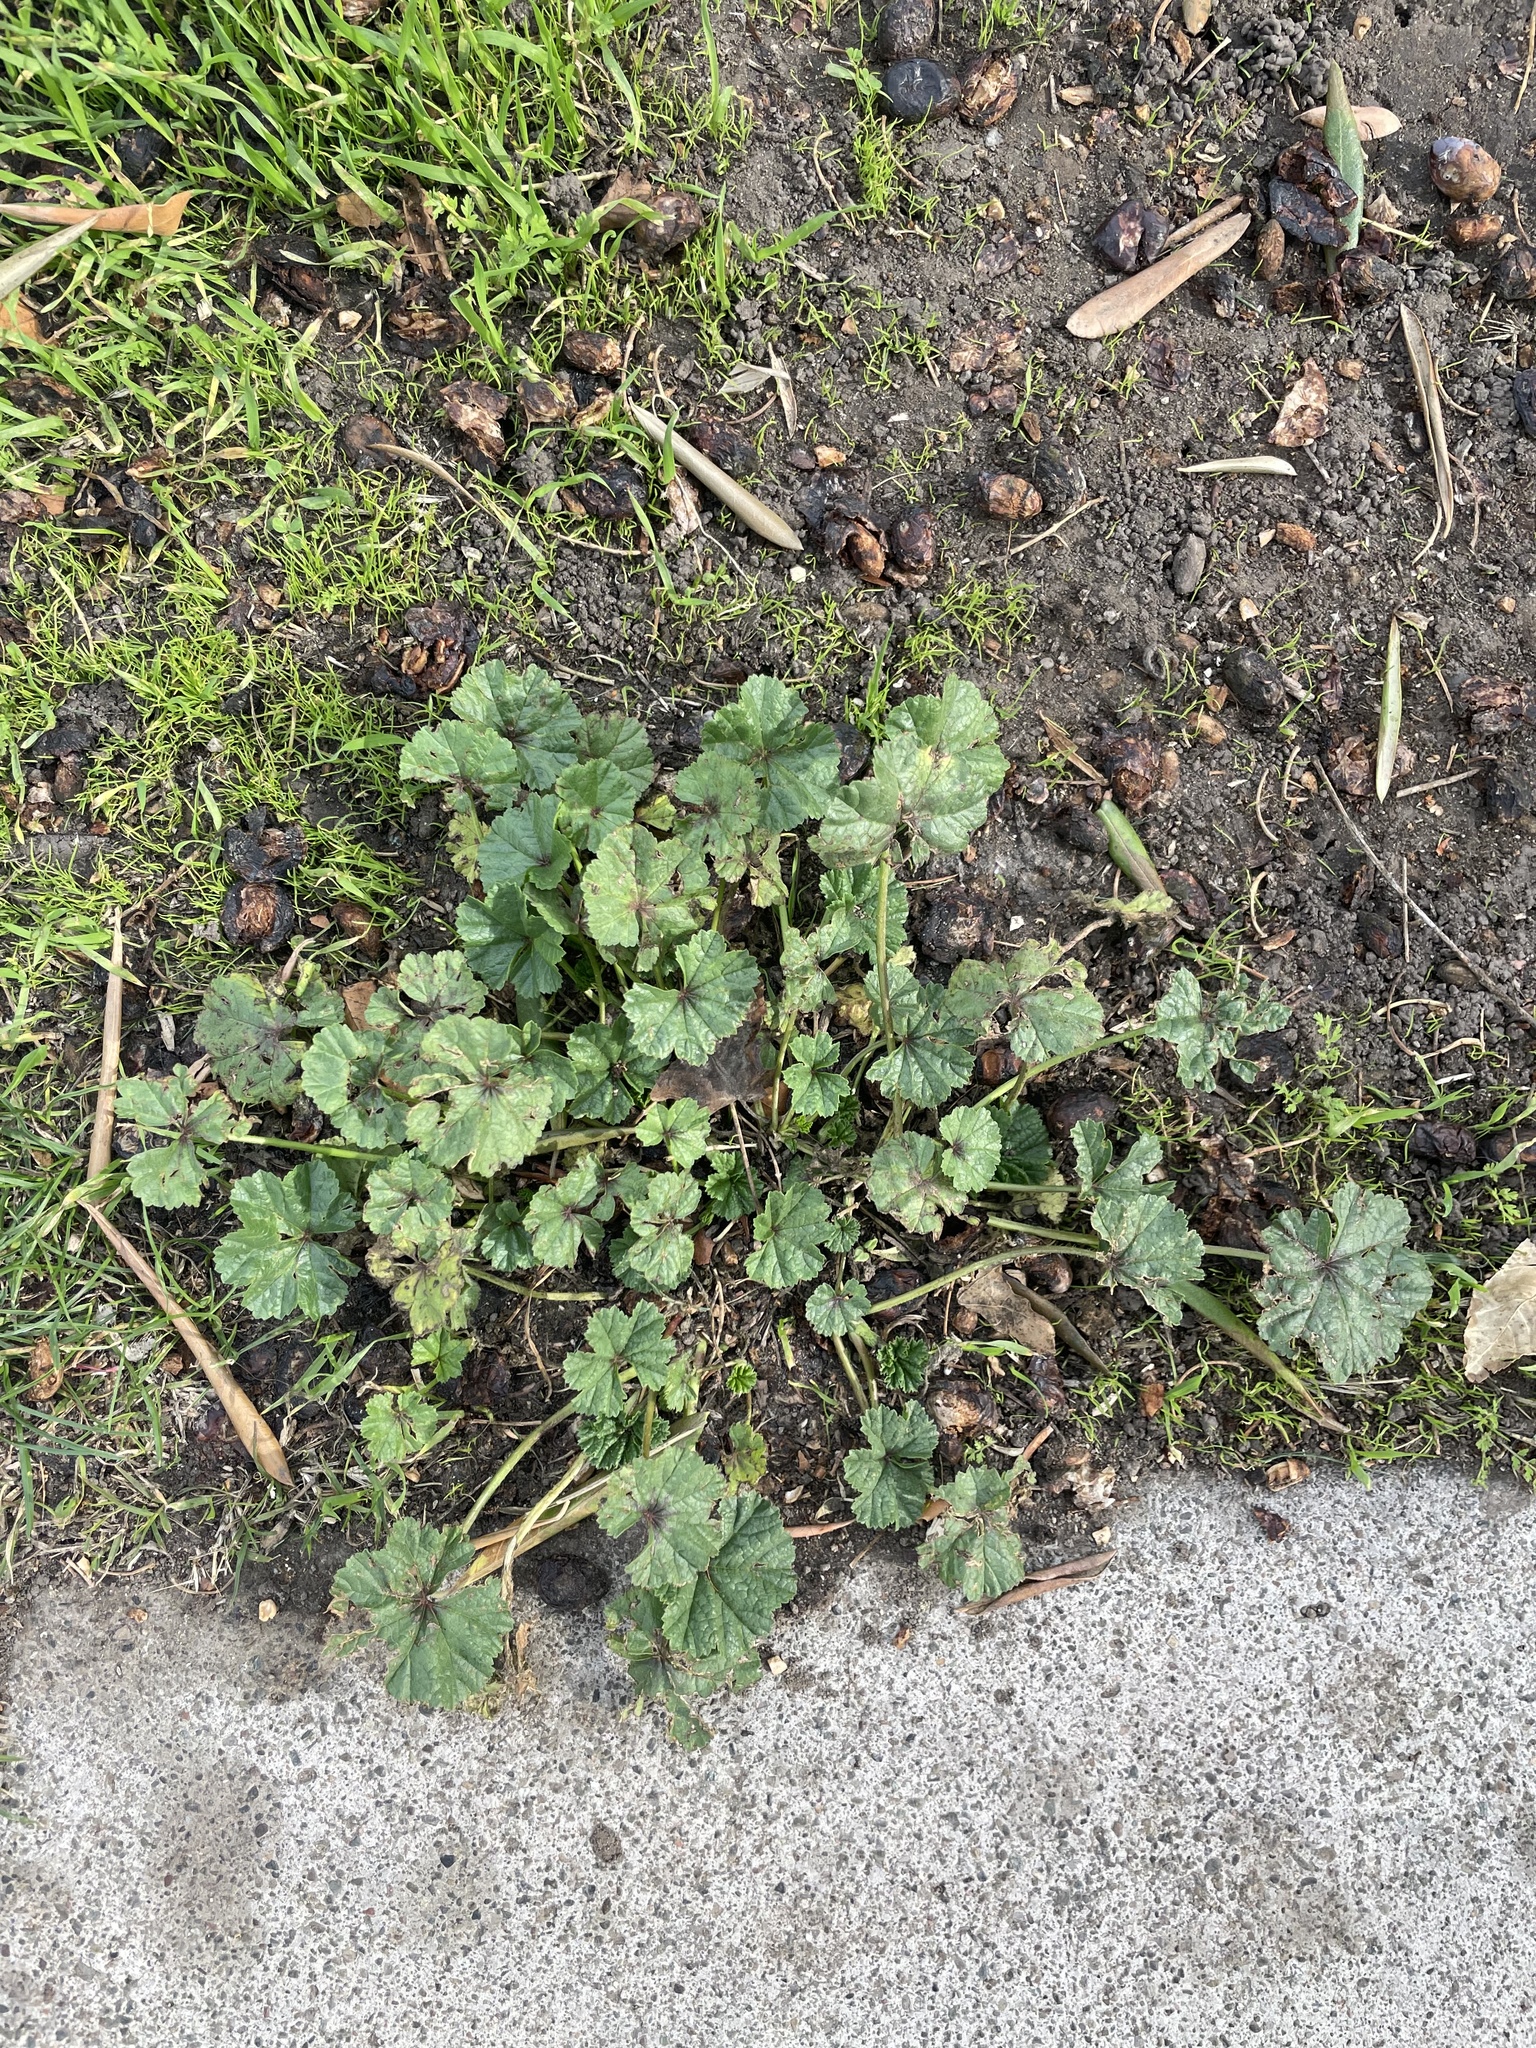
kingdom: Plantae
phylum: Tracheophyta
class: Magnoliopsida
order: Malvales
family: Malvaceae
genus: Malva
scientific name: Malva
